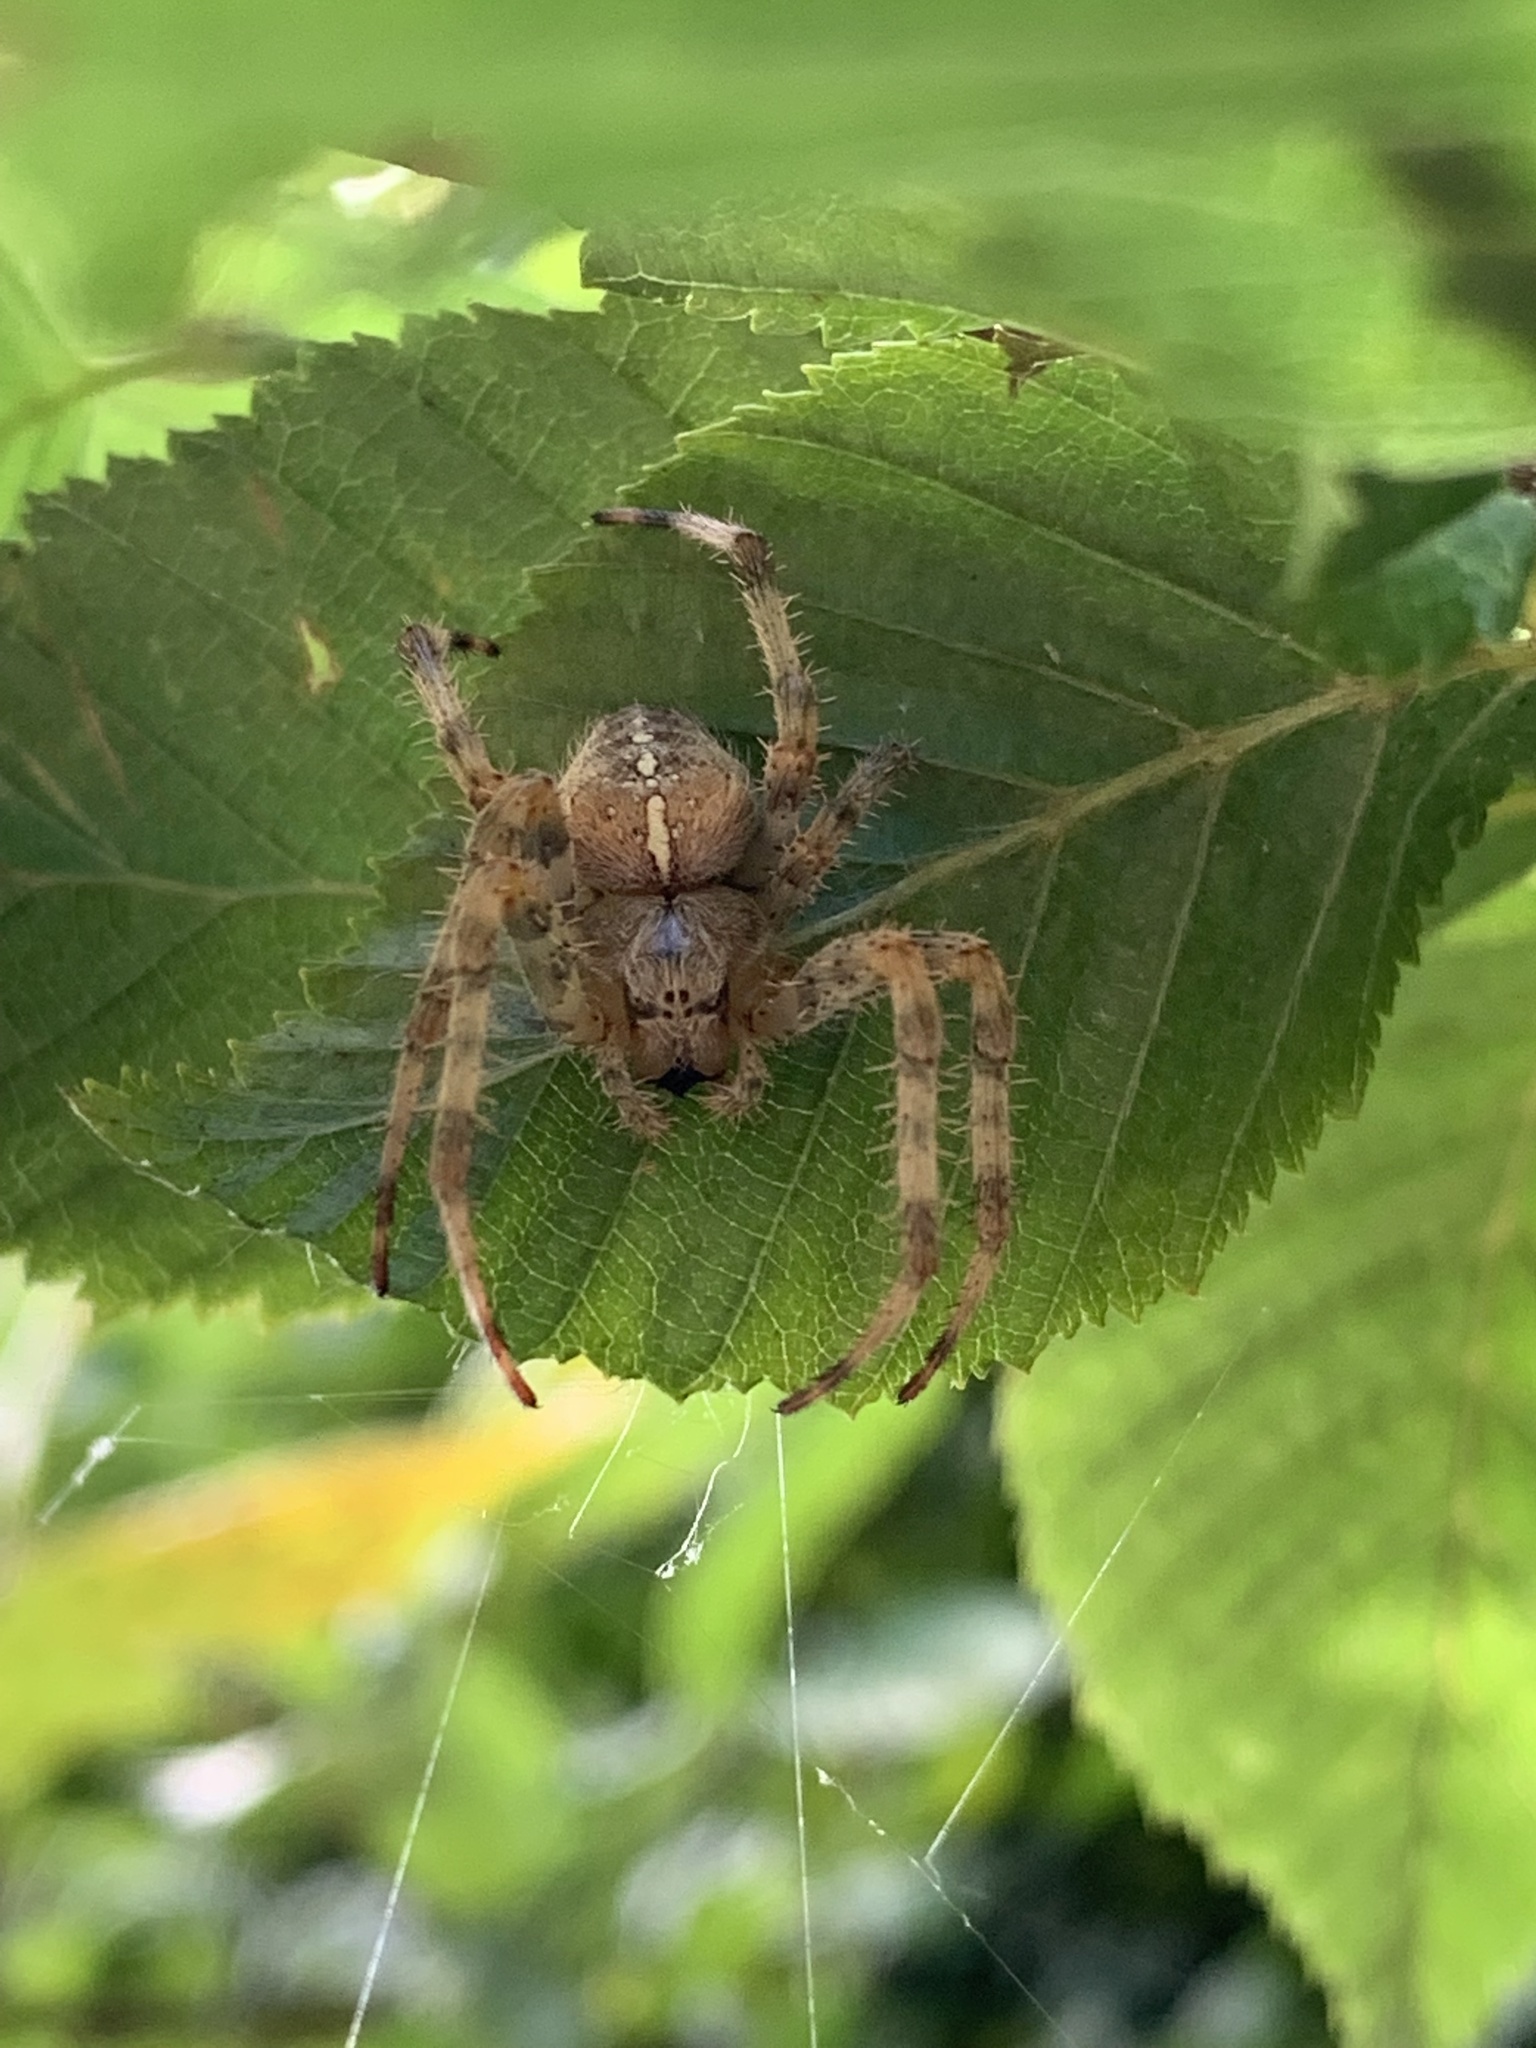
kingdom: Animalia
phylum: Arthropoda
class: Arachnida
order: Araneae
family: Araneidae
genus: Araneus
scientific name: Araneus diadematus
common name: Cross orbweaver
